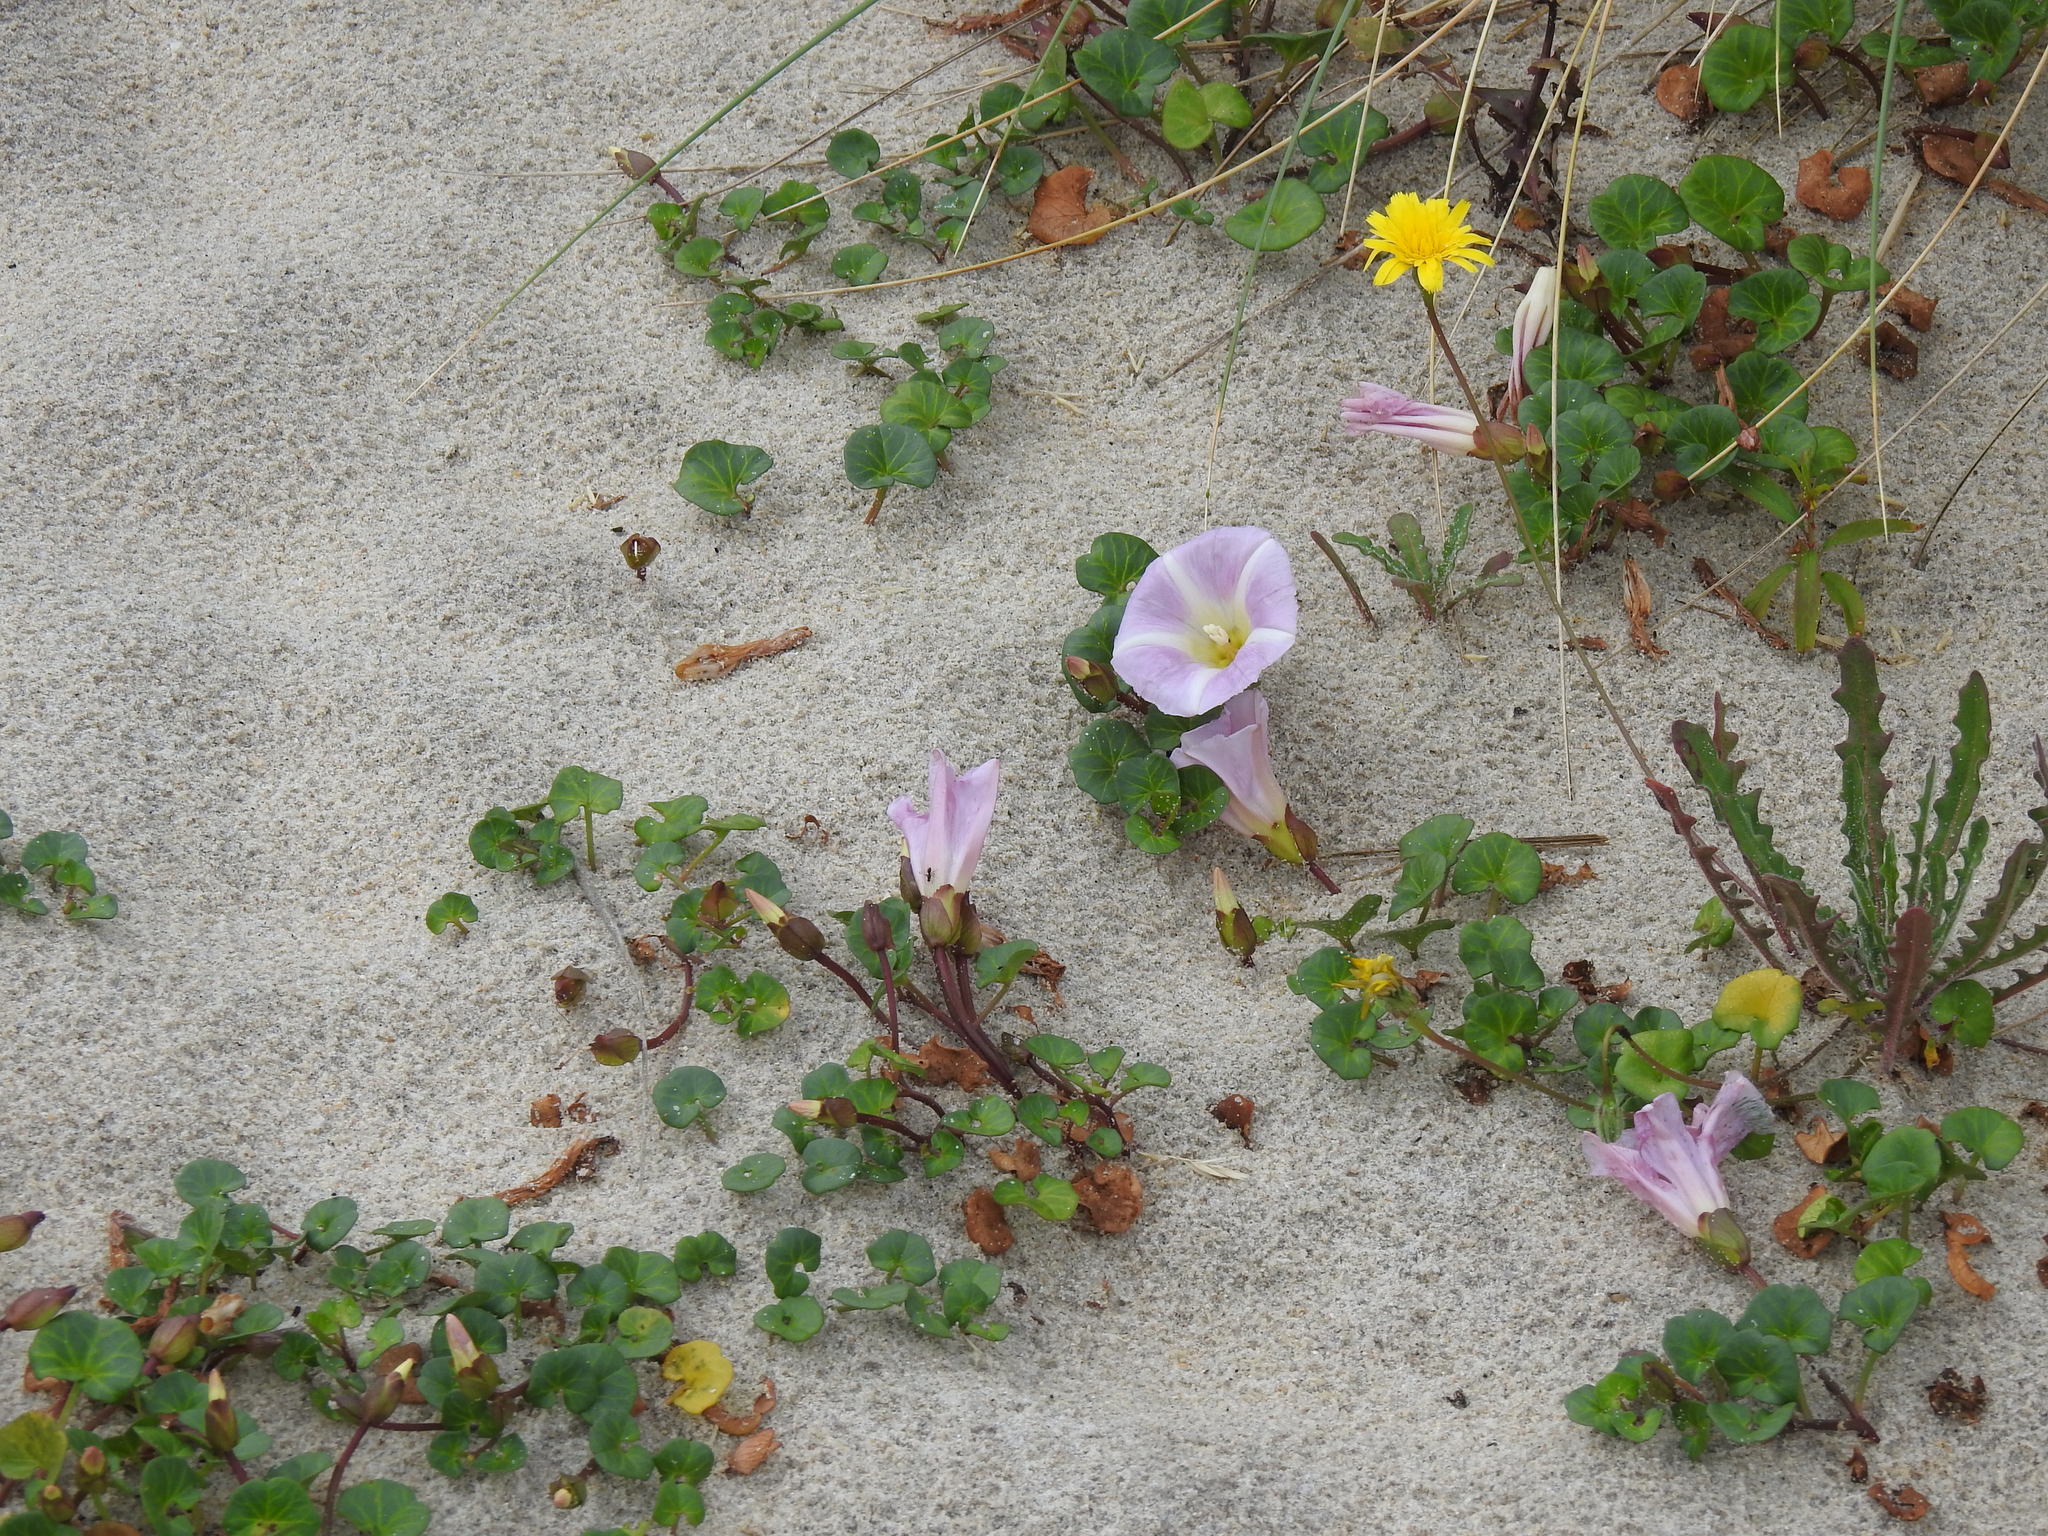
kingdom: Plantae
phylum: Tracheophyta
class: Magnoliopsida
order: Solanales
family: Convolvulaceae
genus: Calystegia
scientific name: Calystegia soldanella
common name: Sea bindweed
